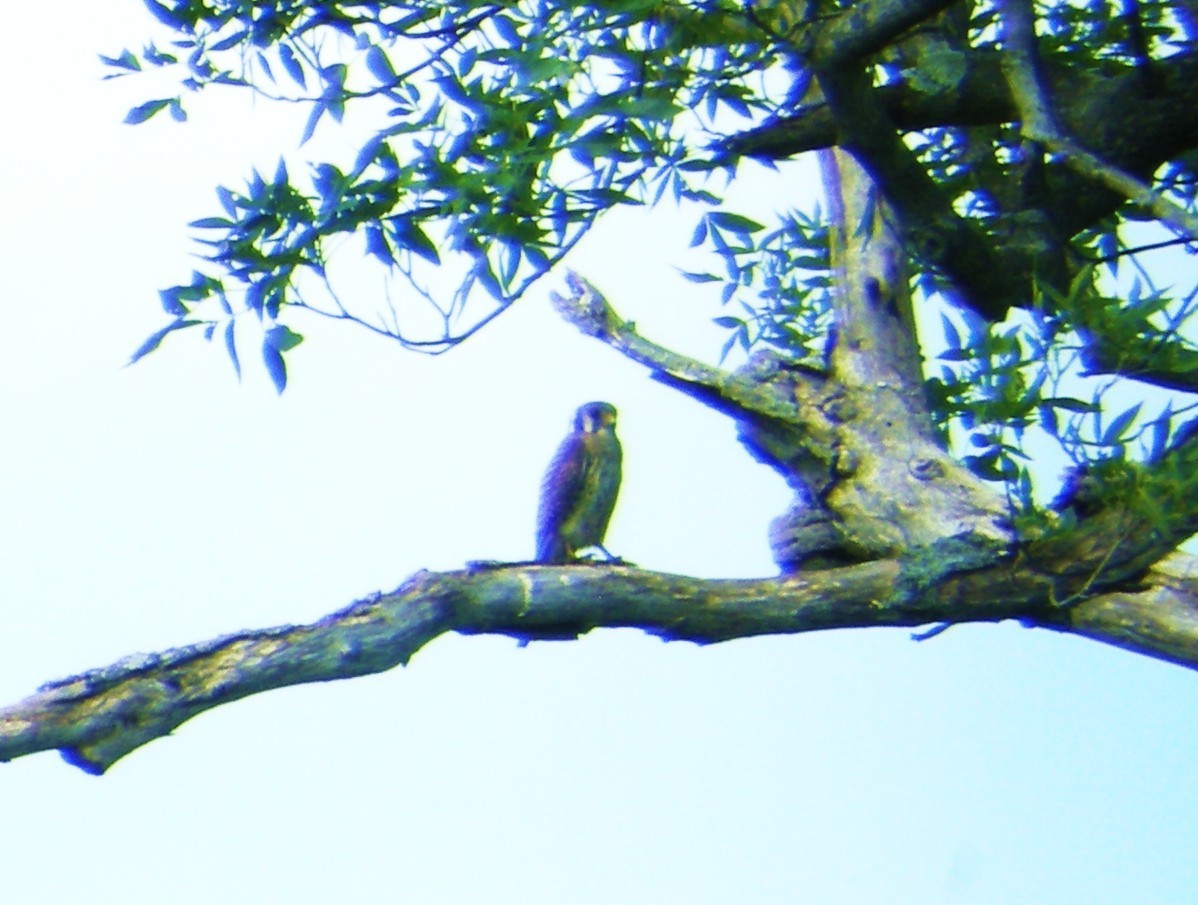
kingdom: Animalia
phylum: Chordata
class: Aves
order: Falconiformes
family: Falconidae
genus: Falco
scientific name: Falco sparverius
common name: American kestrel
